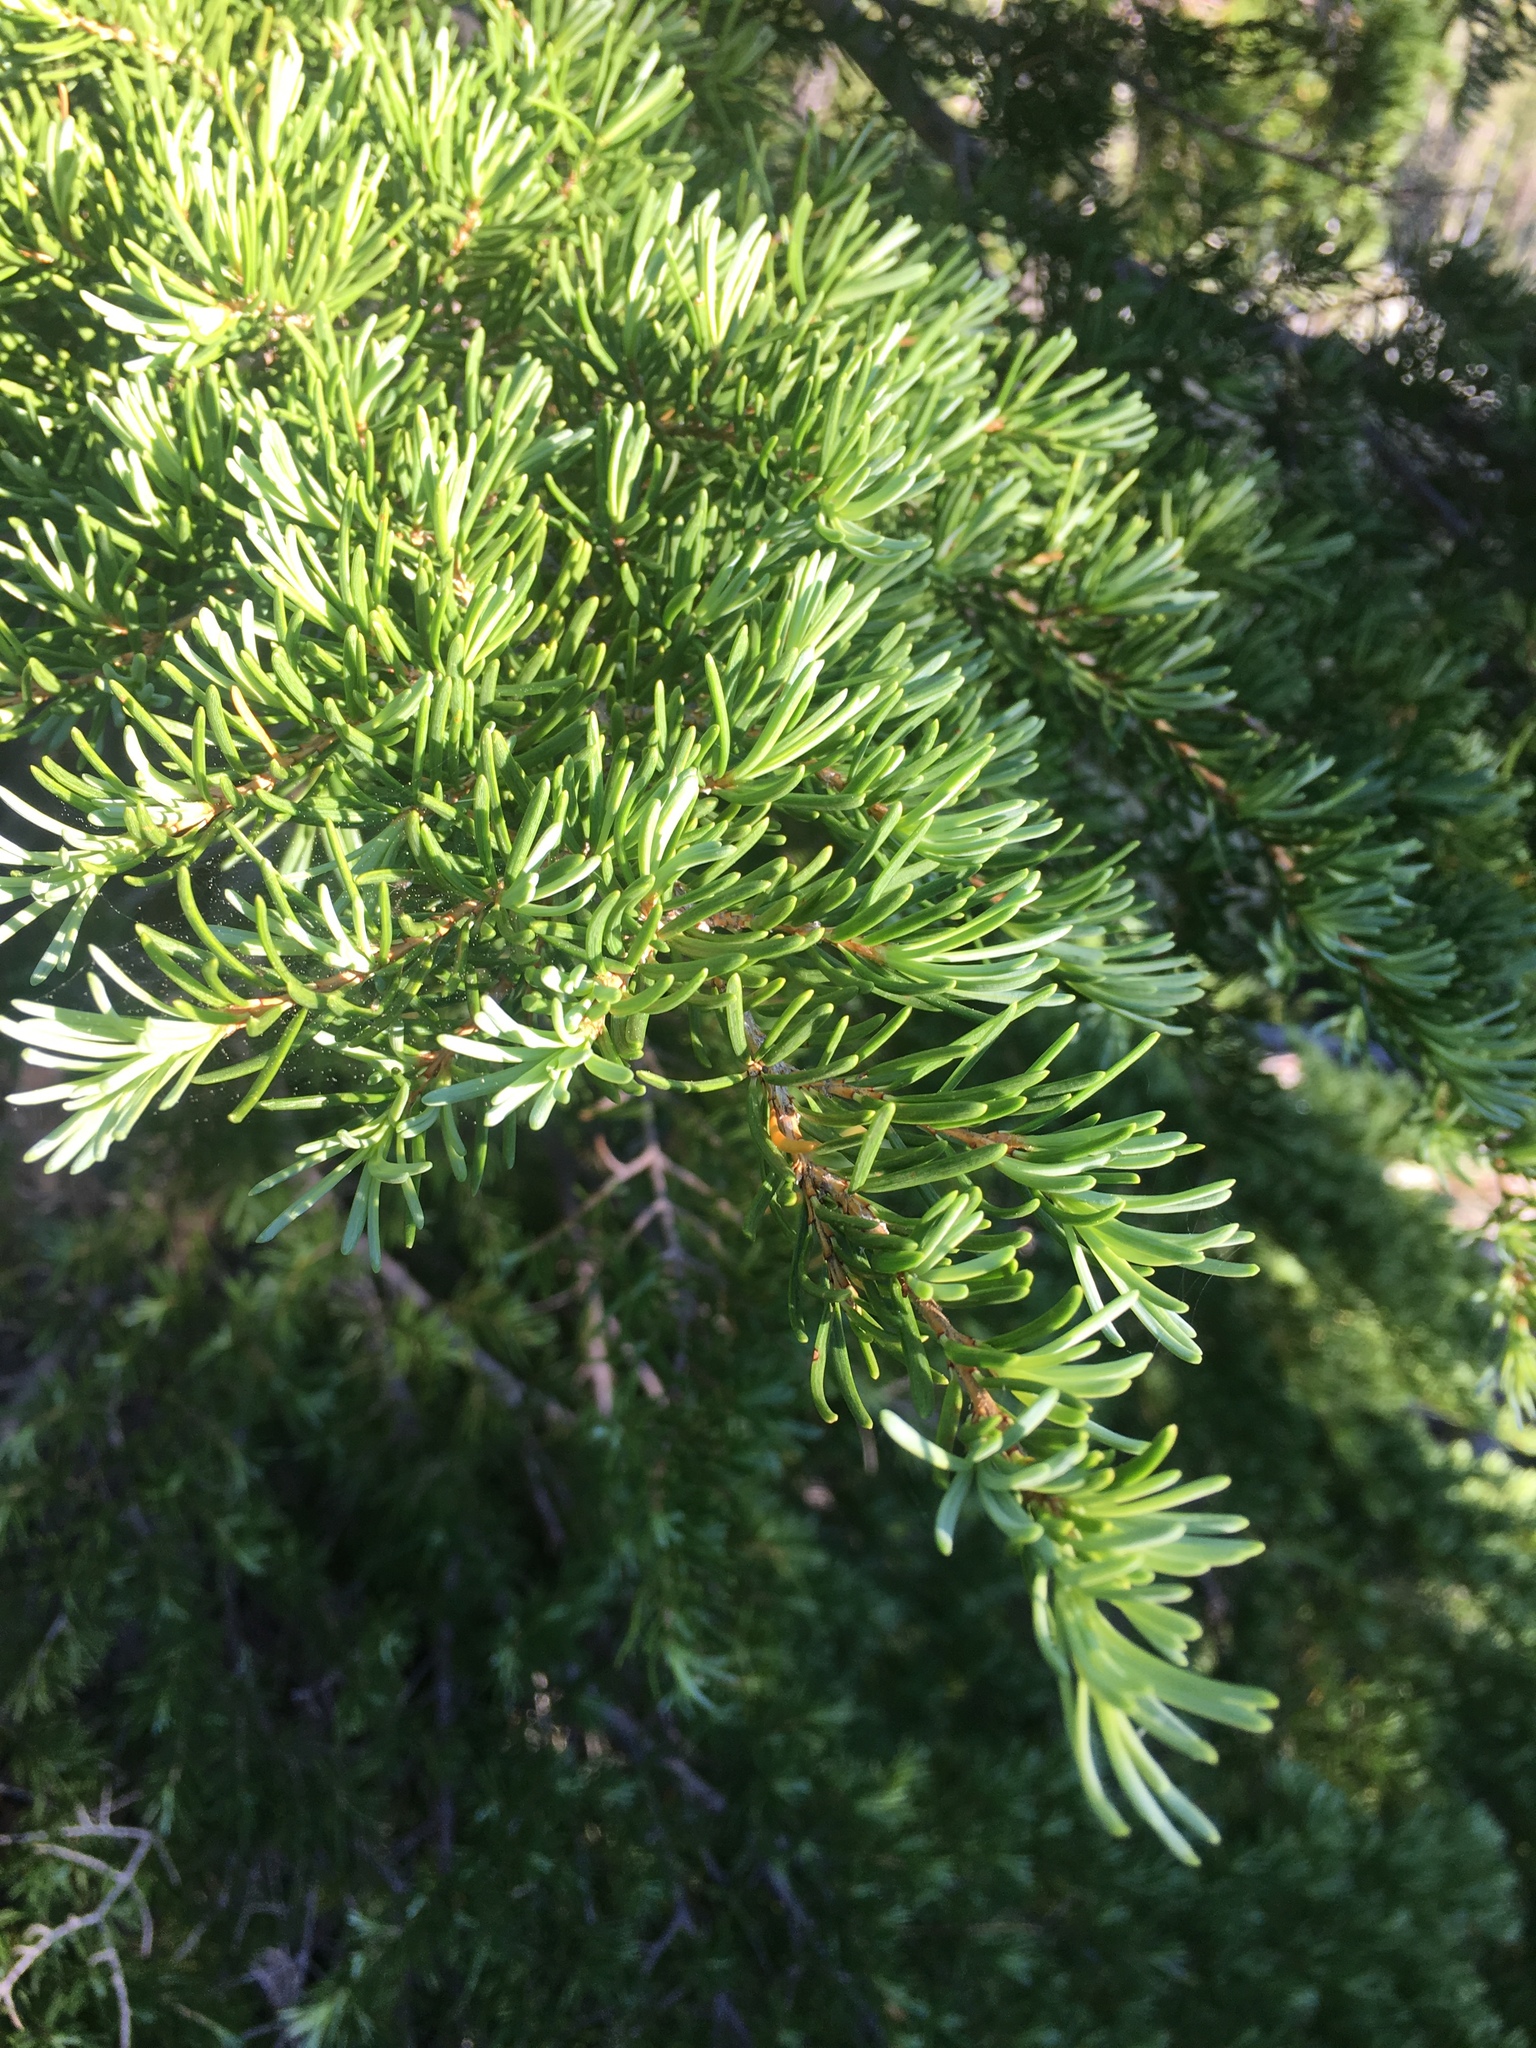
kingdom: Plantae
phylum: Tracheophyta
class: Pinopsida
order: Pinales
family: Pinaceae
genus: Tsuga
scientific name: Tsuga mertensiana
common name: Mountain hemlock
